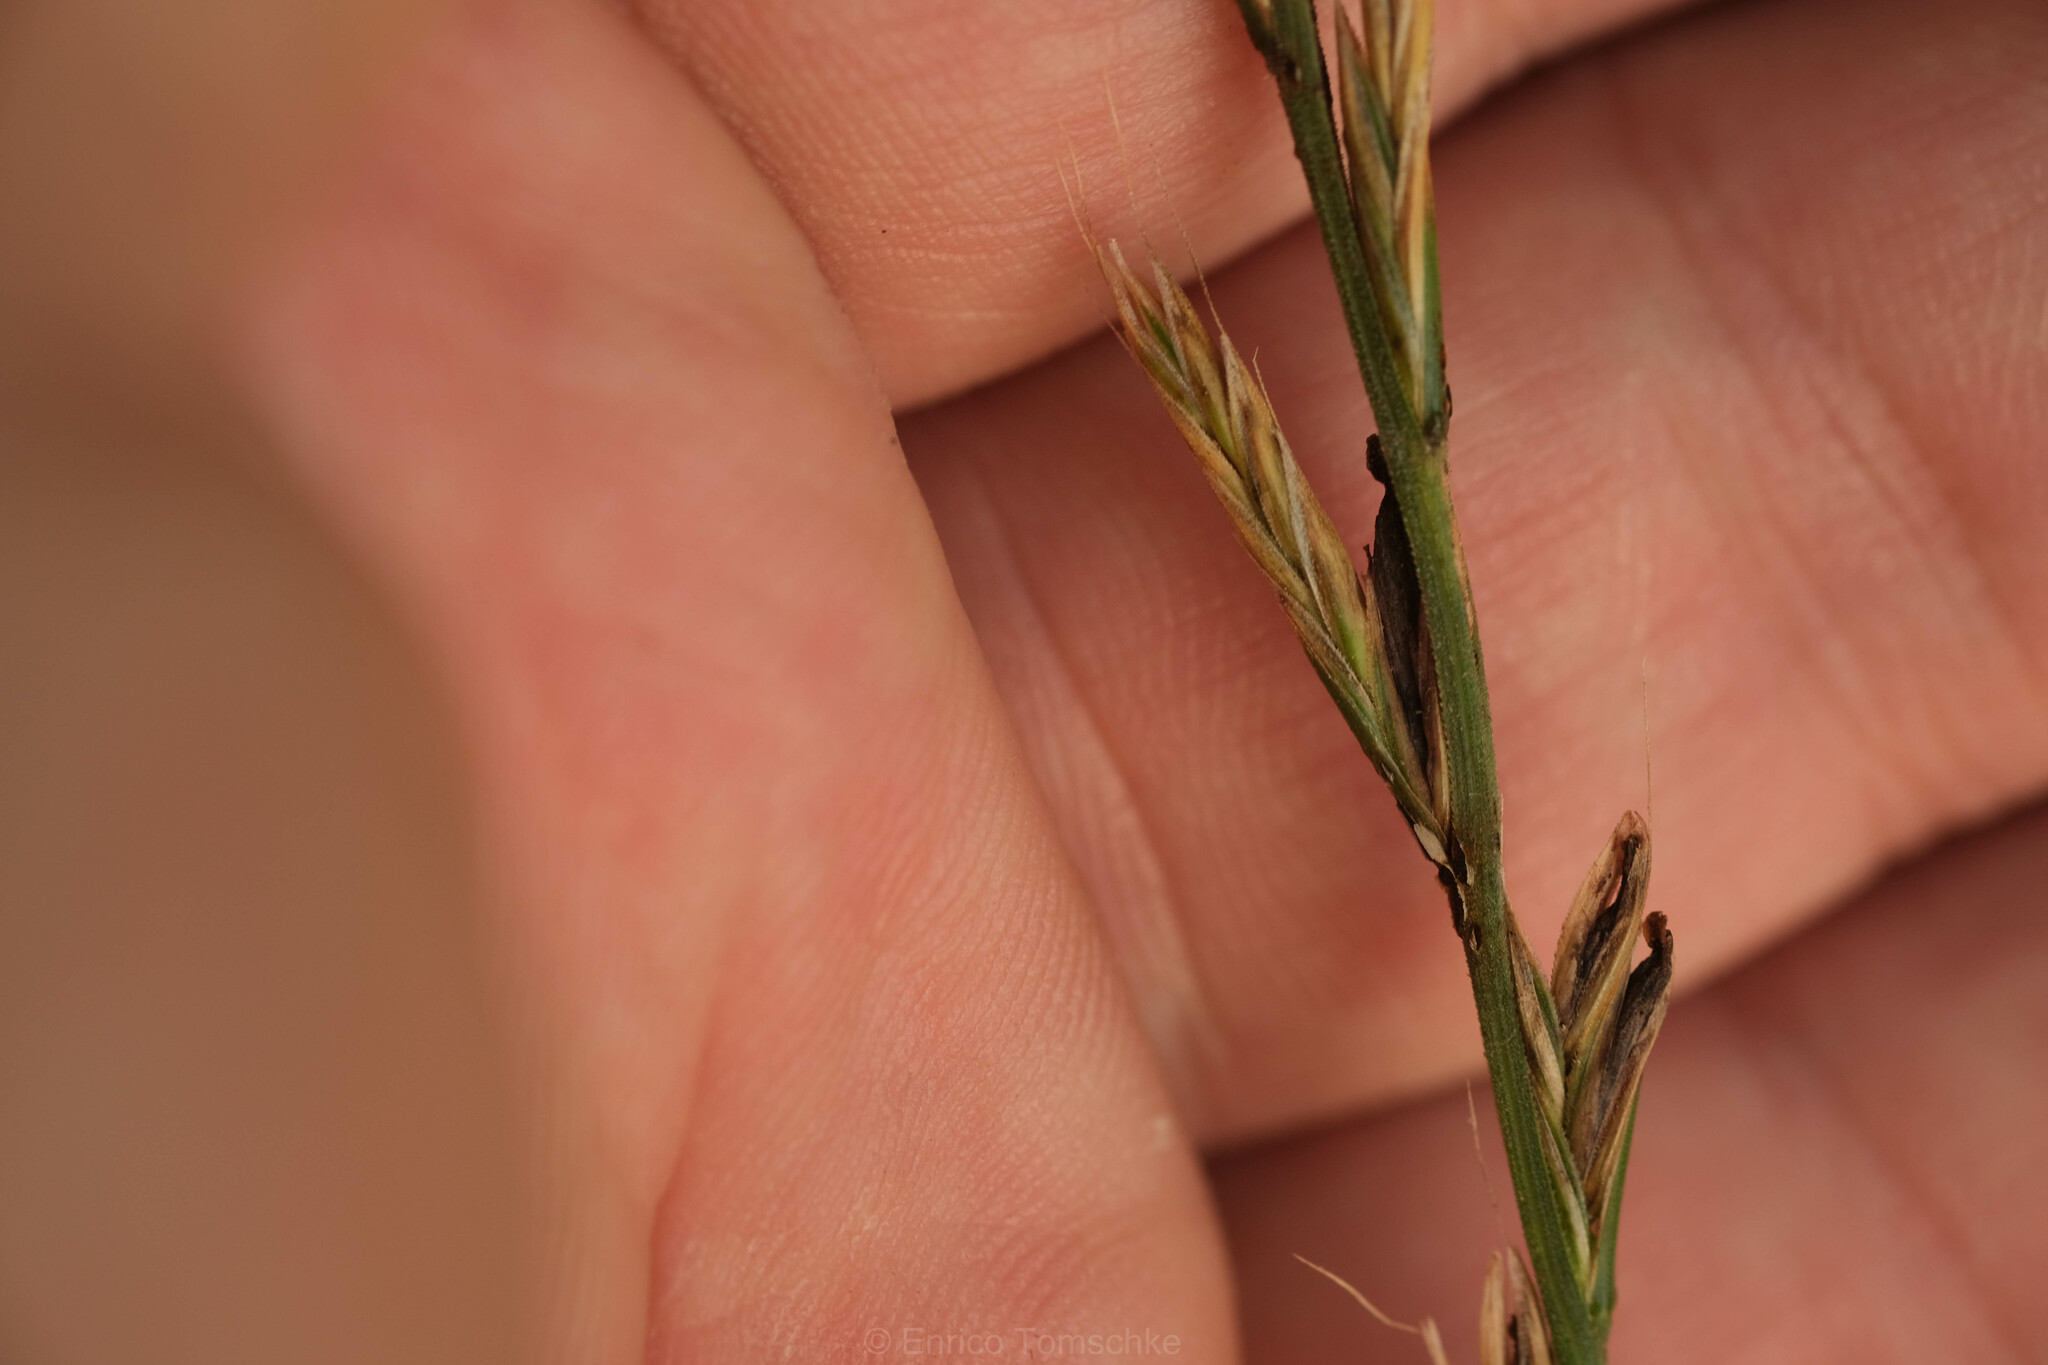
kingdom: Fungi
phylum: Ascomycota
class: Sordariomycetes
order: Hypocreales
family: Clavicipitaceae
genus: Claviceps
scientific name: Claviceps purpurea
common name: Rye ergot
